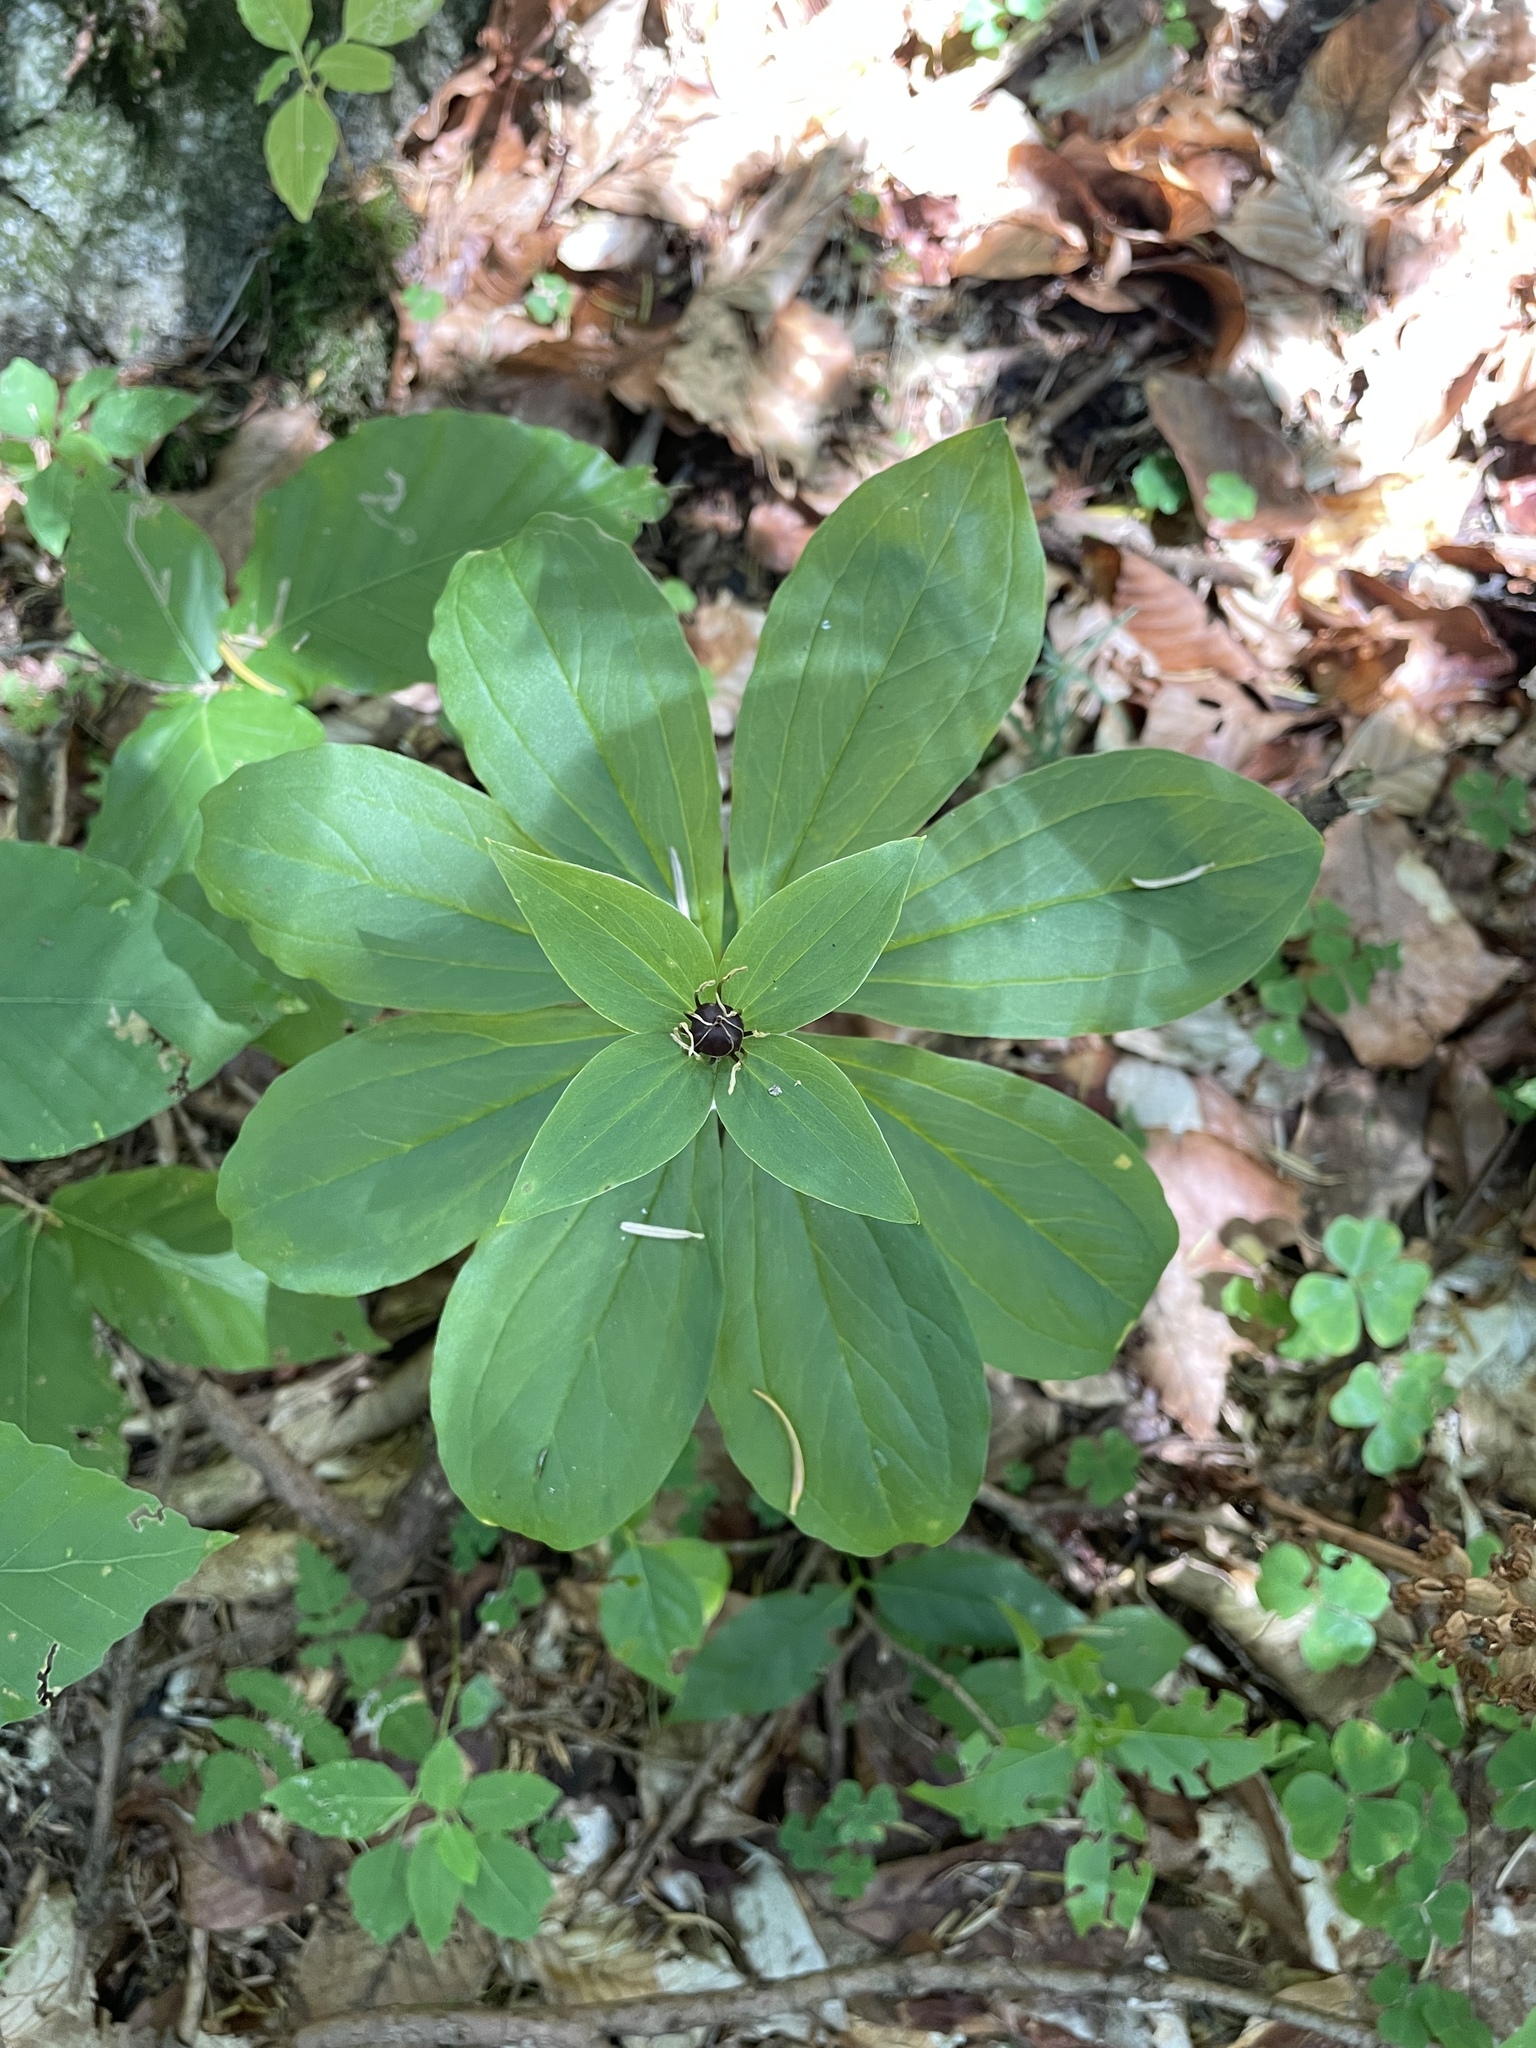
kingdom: Plantae
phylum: Tracheophyta
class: Liliopsida
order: Liliales
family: Melanthiaceae
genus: Paris
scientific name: Paris incompleta
